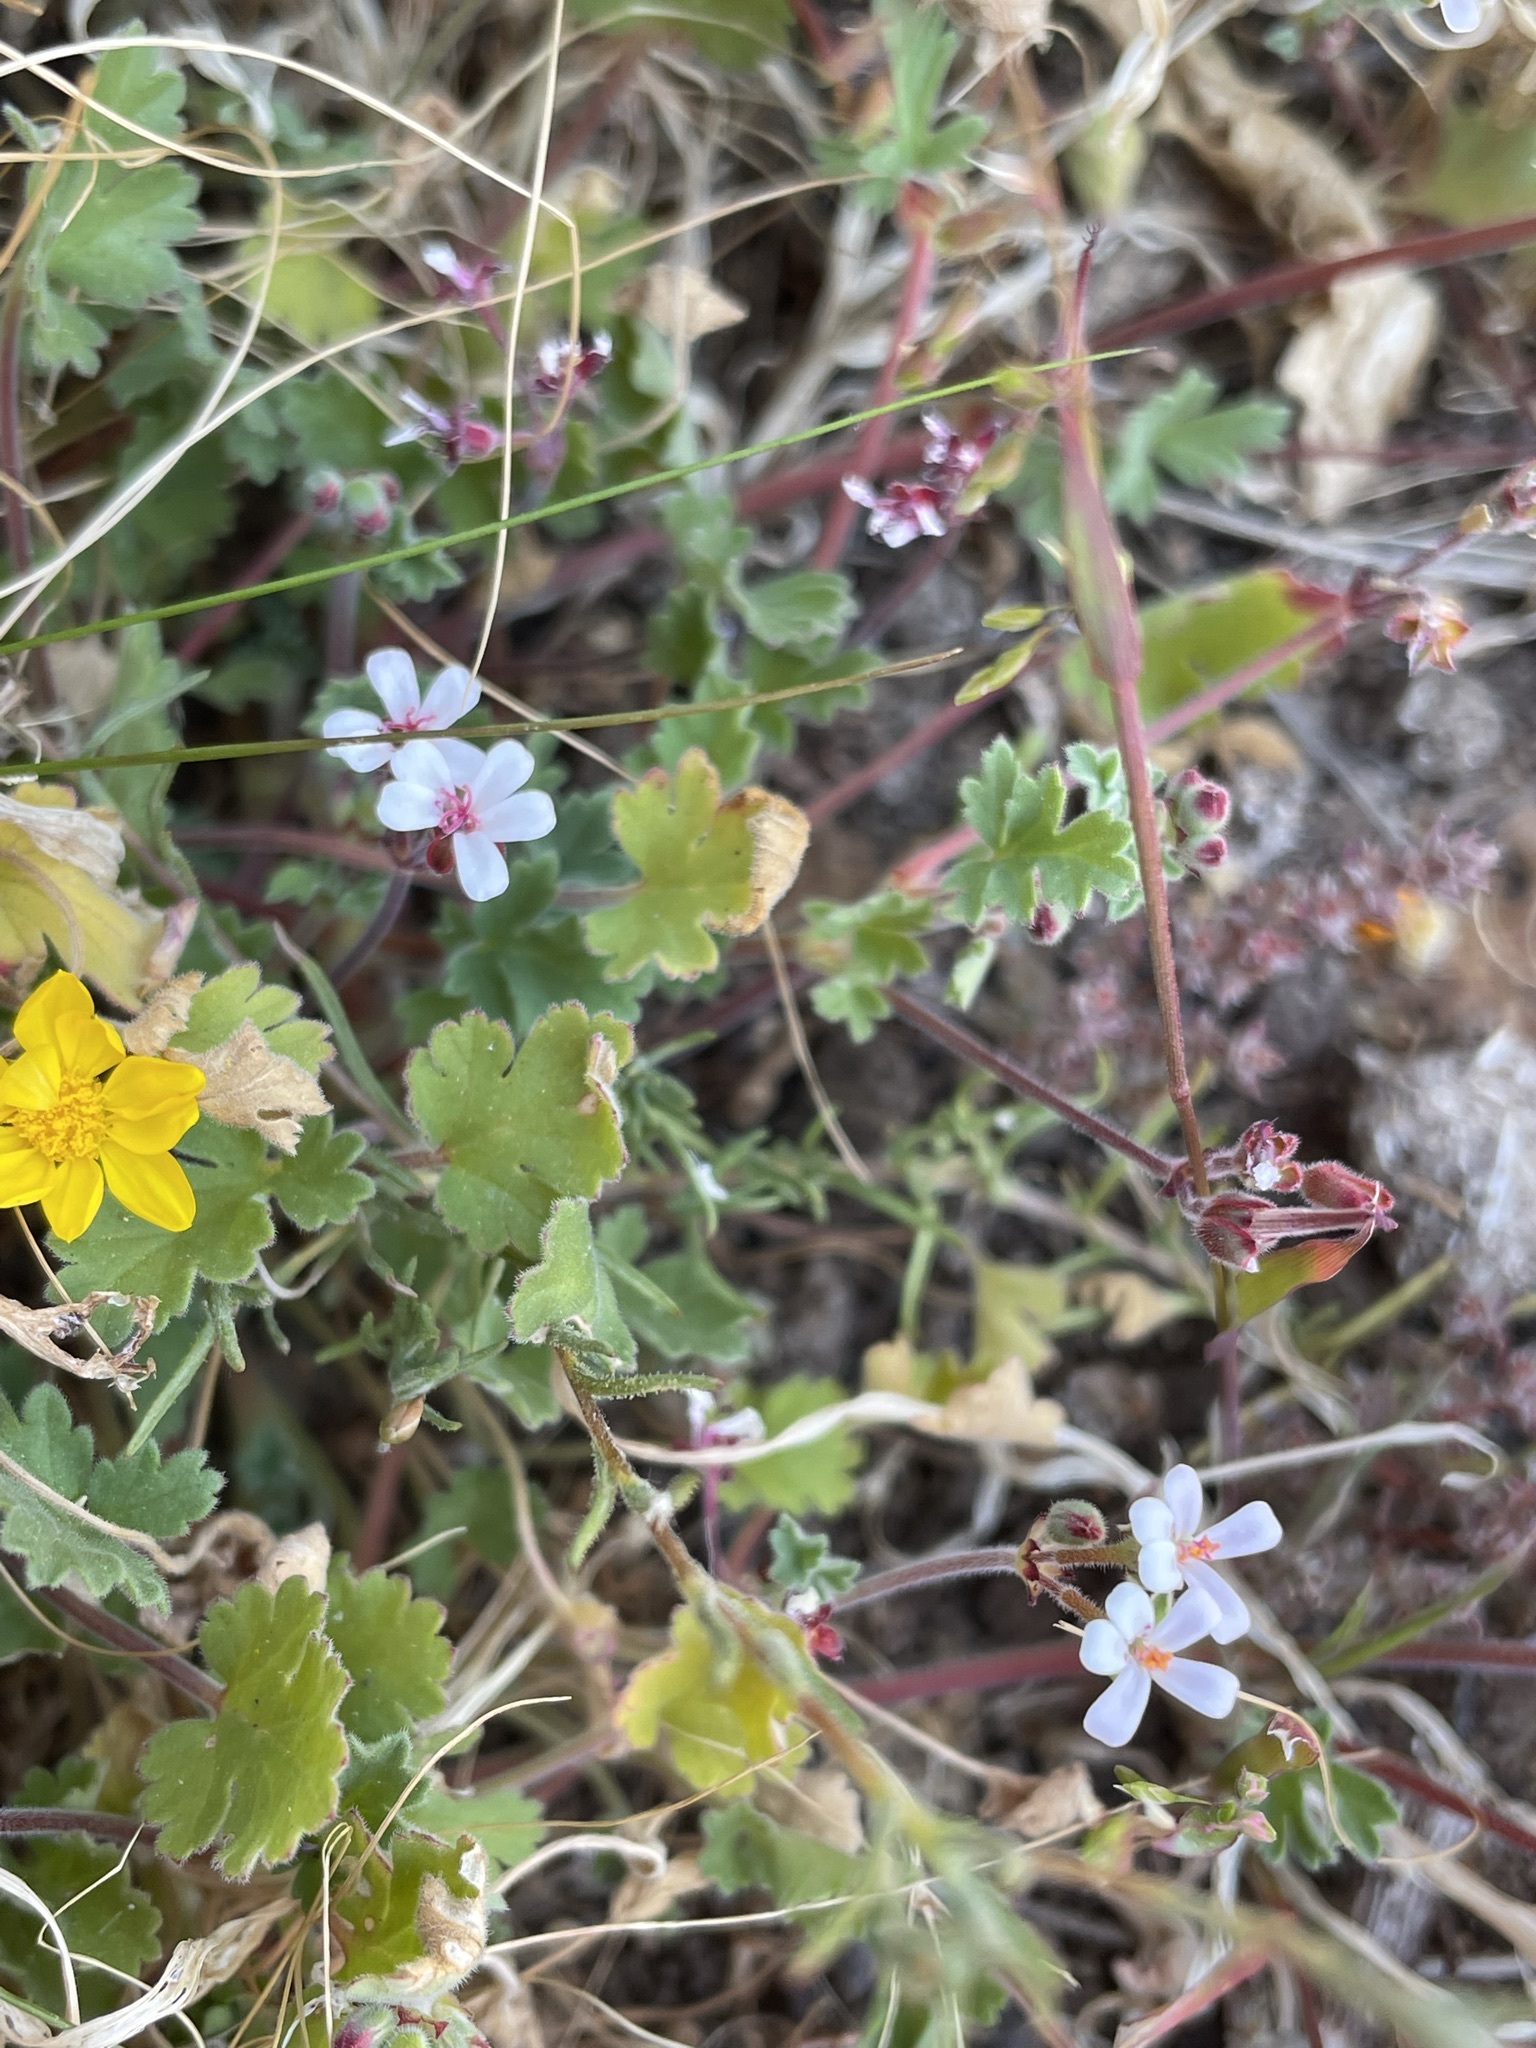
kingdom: Plantae
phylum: Tracheophyta
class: Magnoliopsida
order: Geraniales
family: Geraniaceae
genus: Pelargonium
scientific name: Pelargonium nanum
